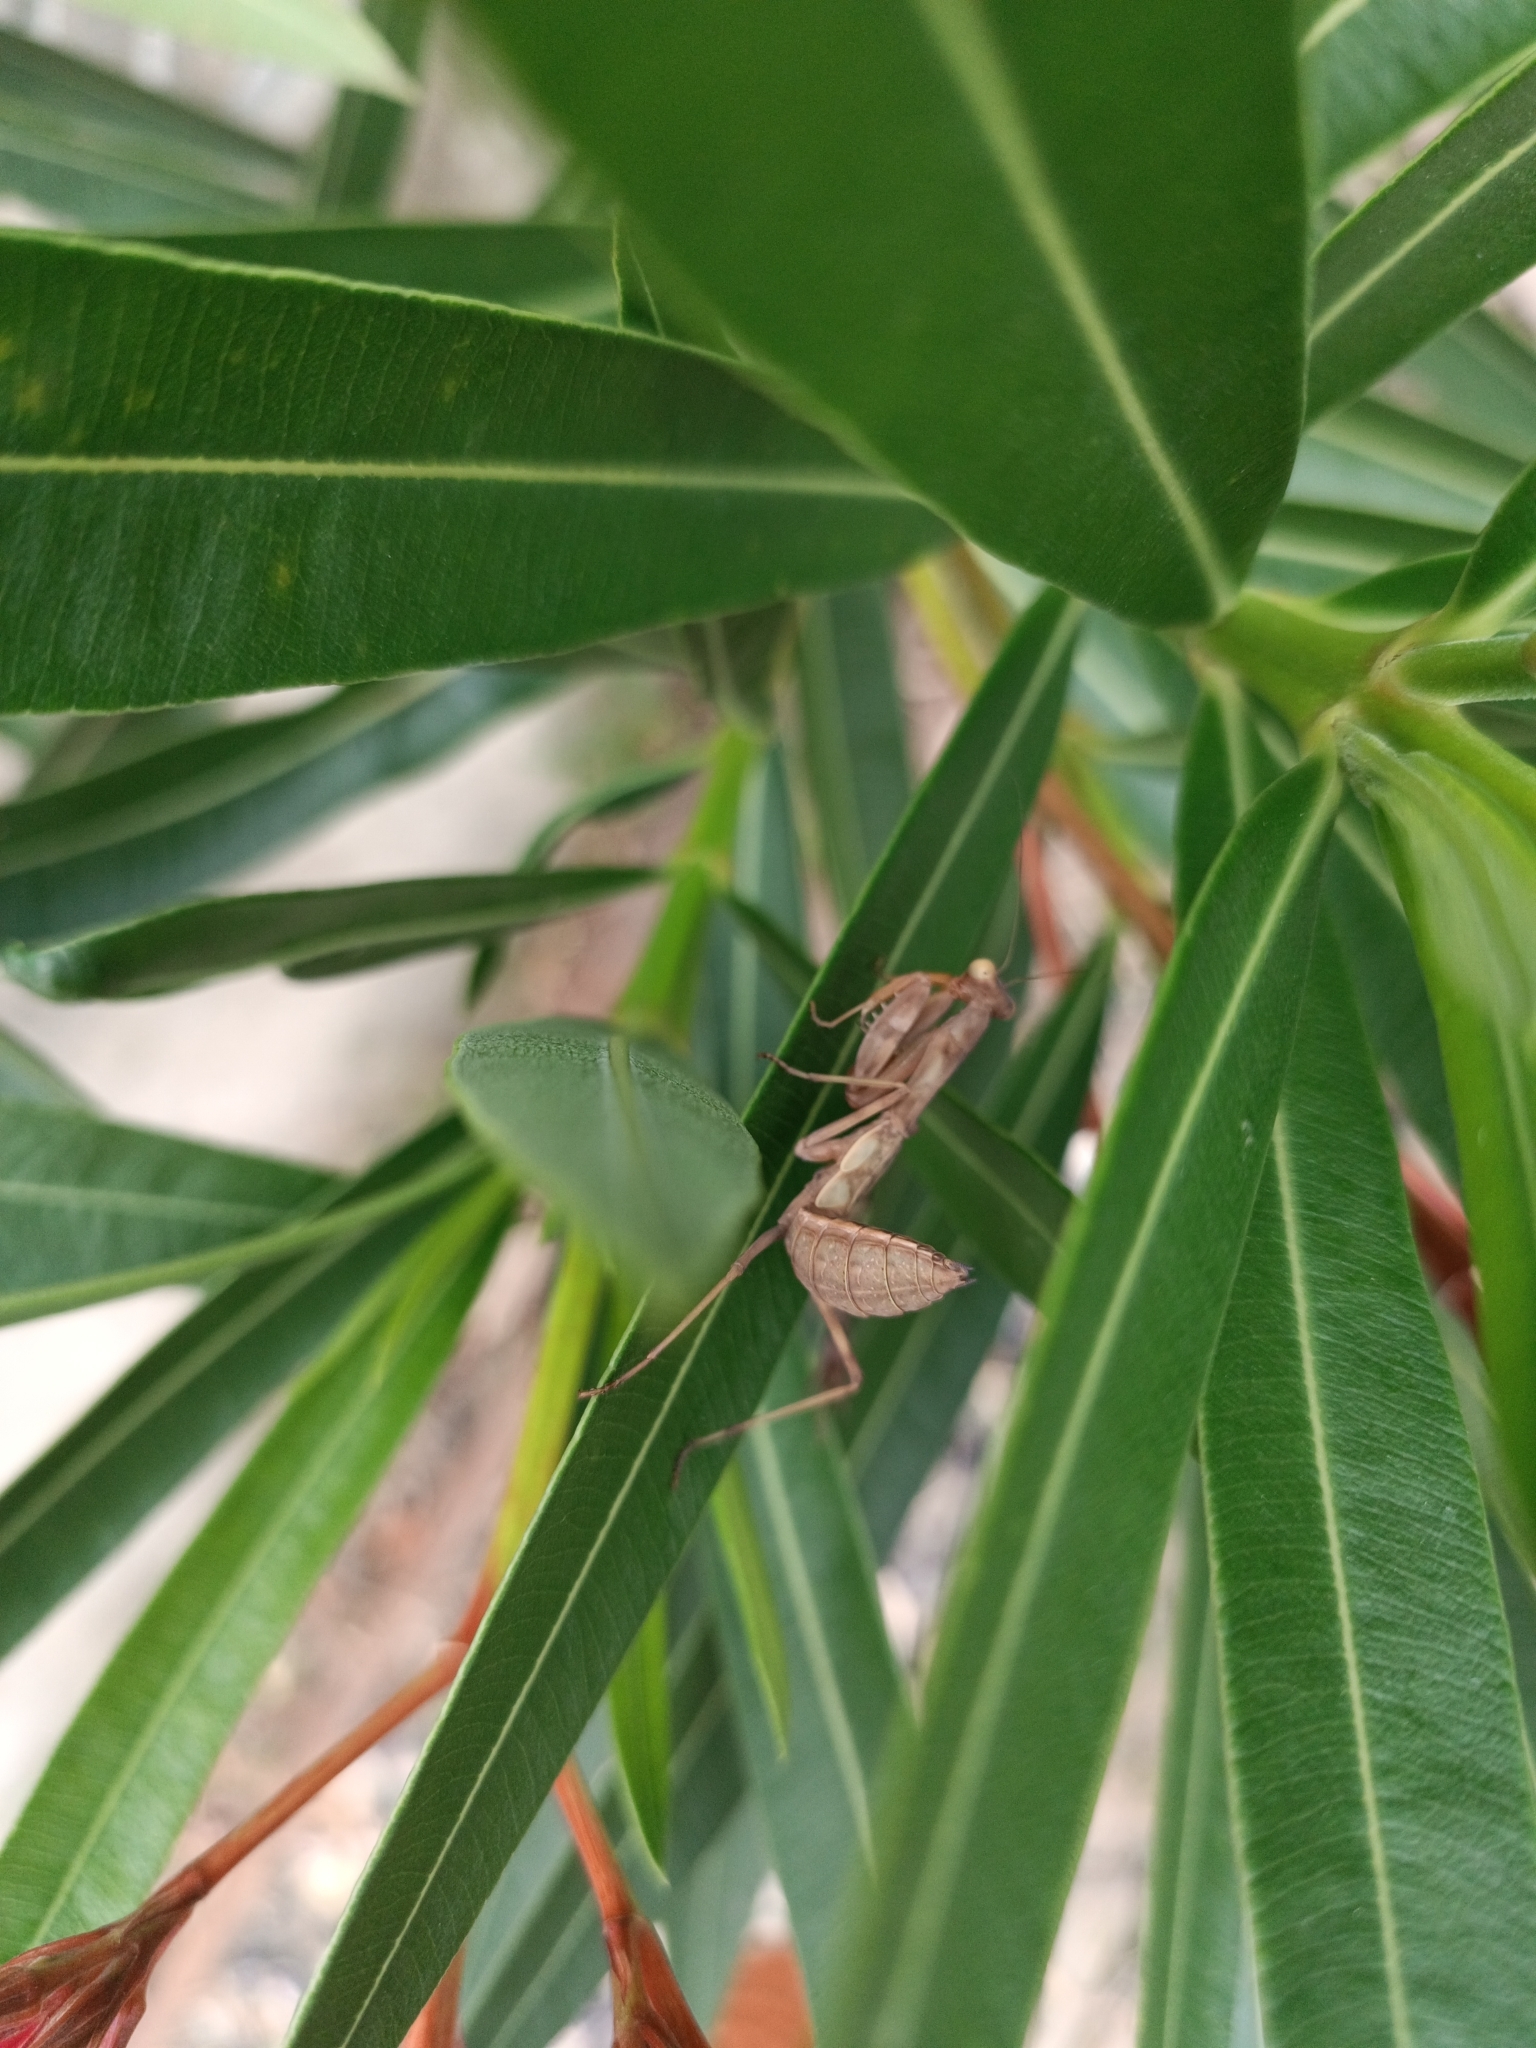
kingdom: Animalia
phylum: Arthropoda
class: Insecta
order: Mantodea
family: Mantidae
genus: Hierodula
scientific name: Hierodula transcaucasica
